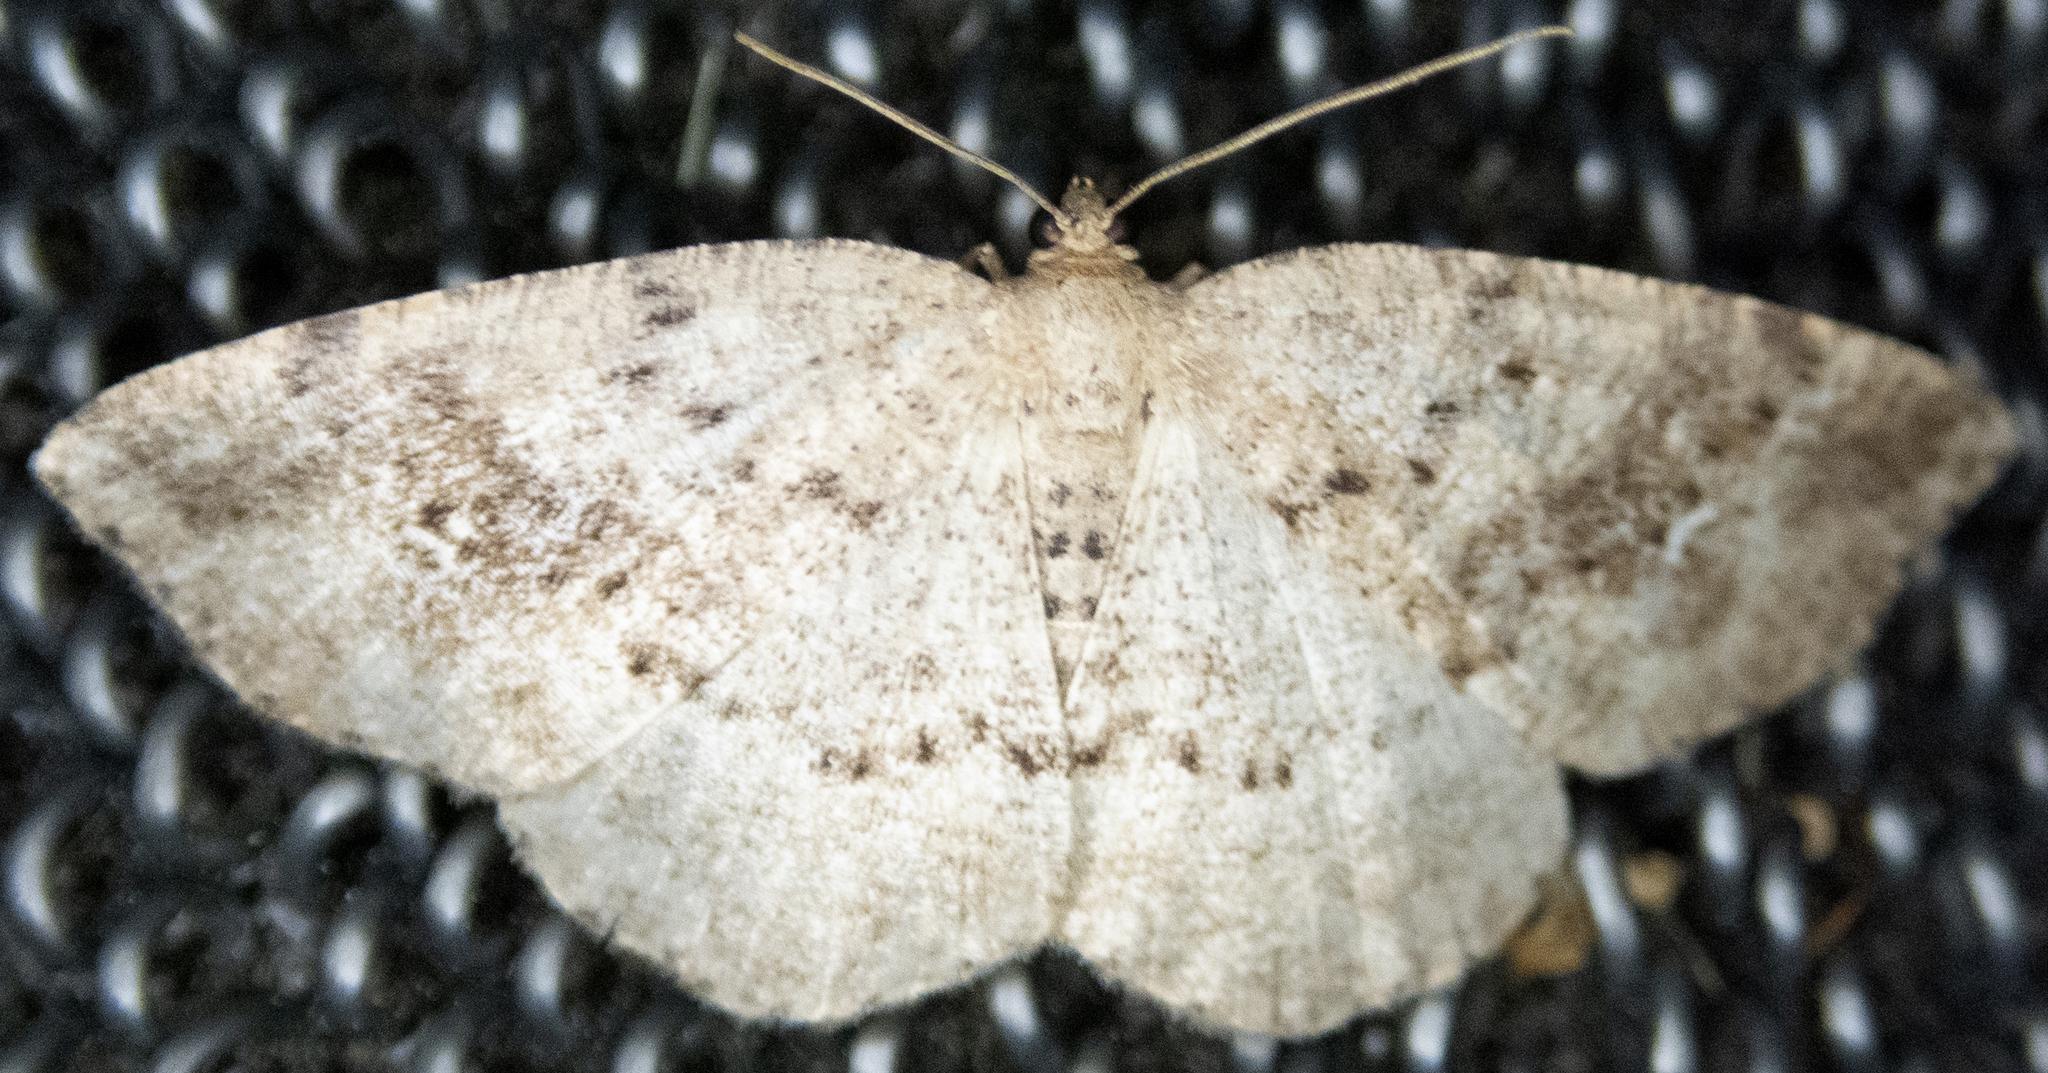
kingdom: Animalia
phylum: Arthropoda
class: Insecta
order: Lepidoptera
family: Geometridae
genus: Homochlodes
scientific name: Homochlodes fritillaria
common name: Pale homochlodes
